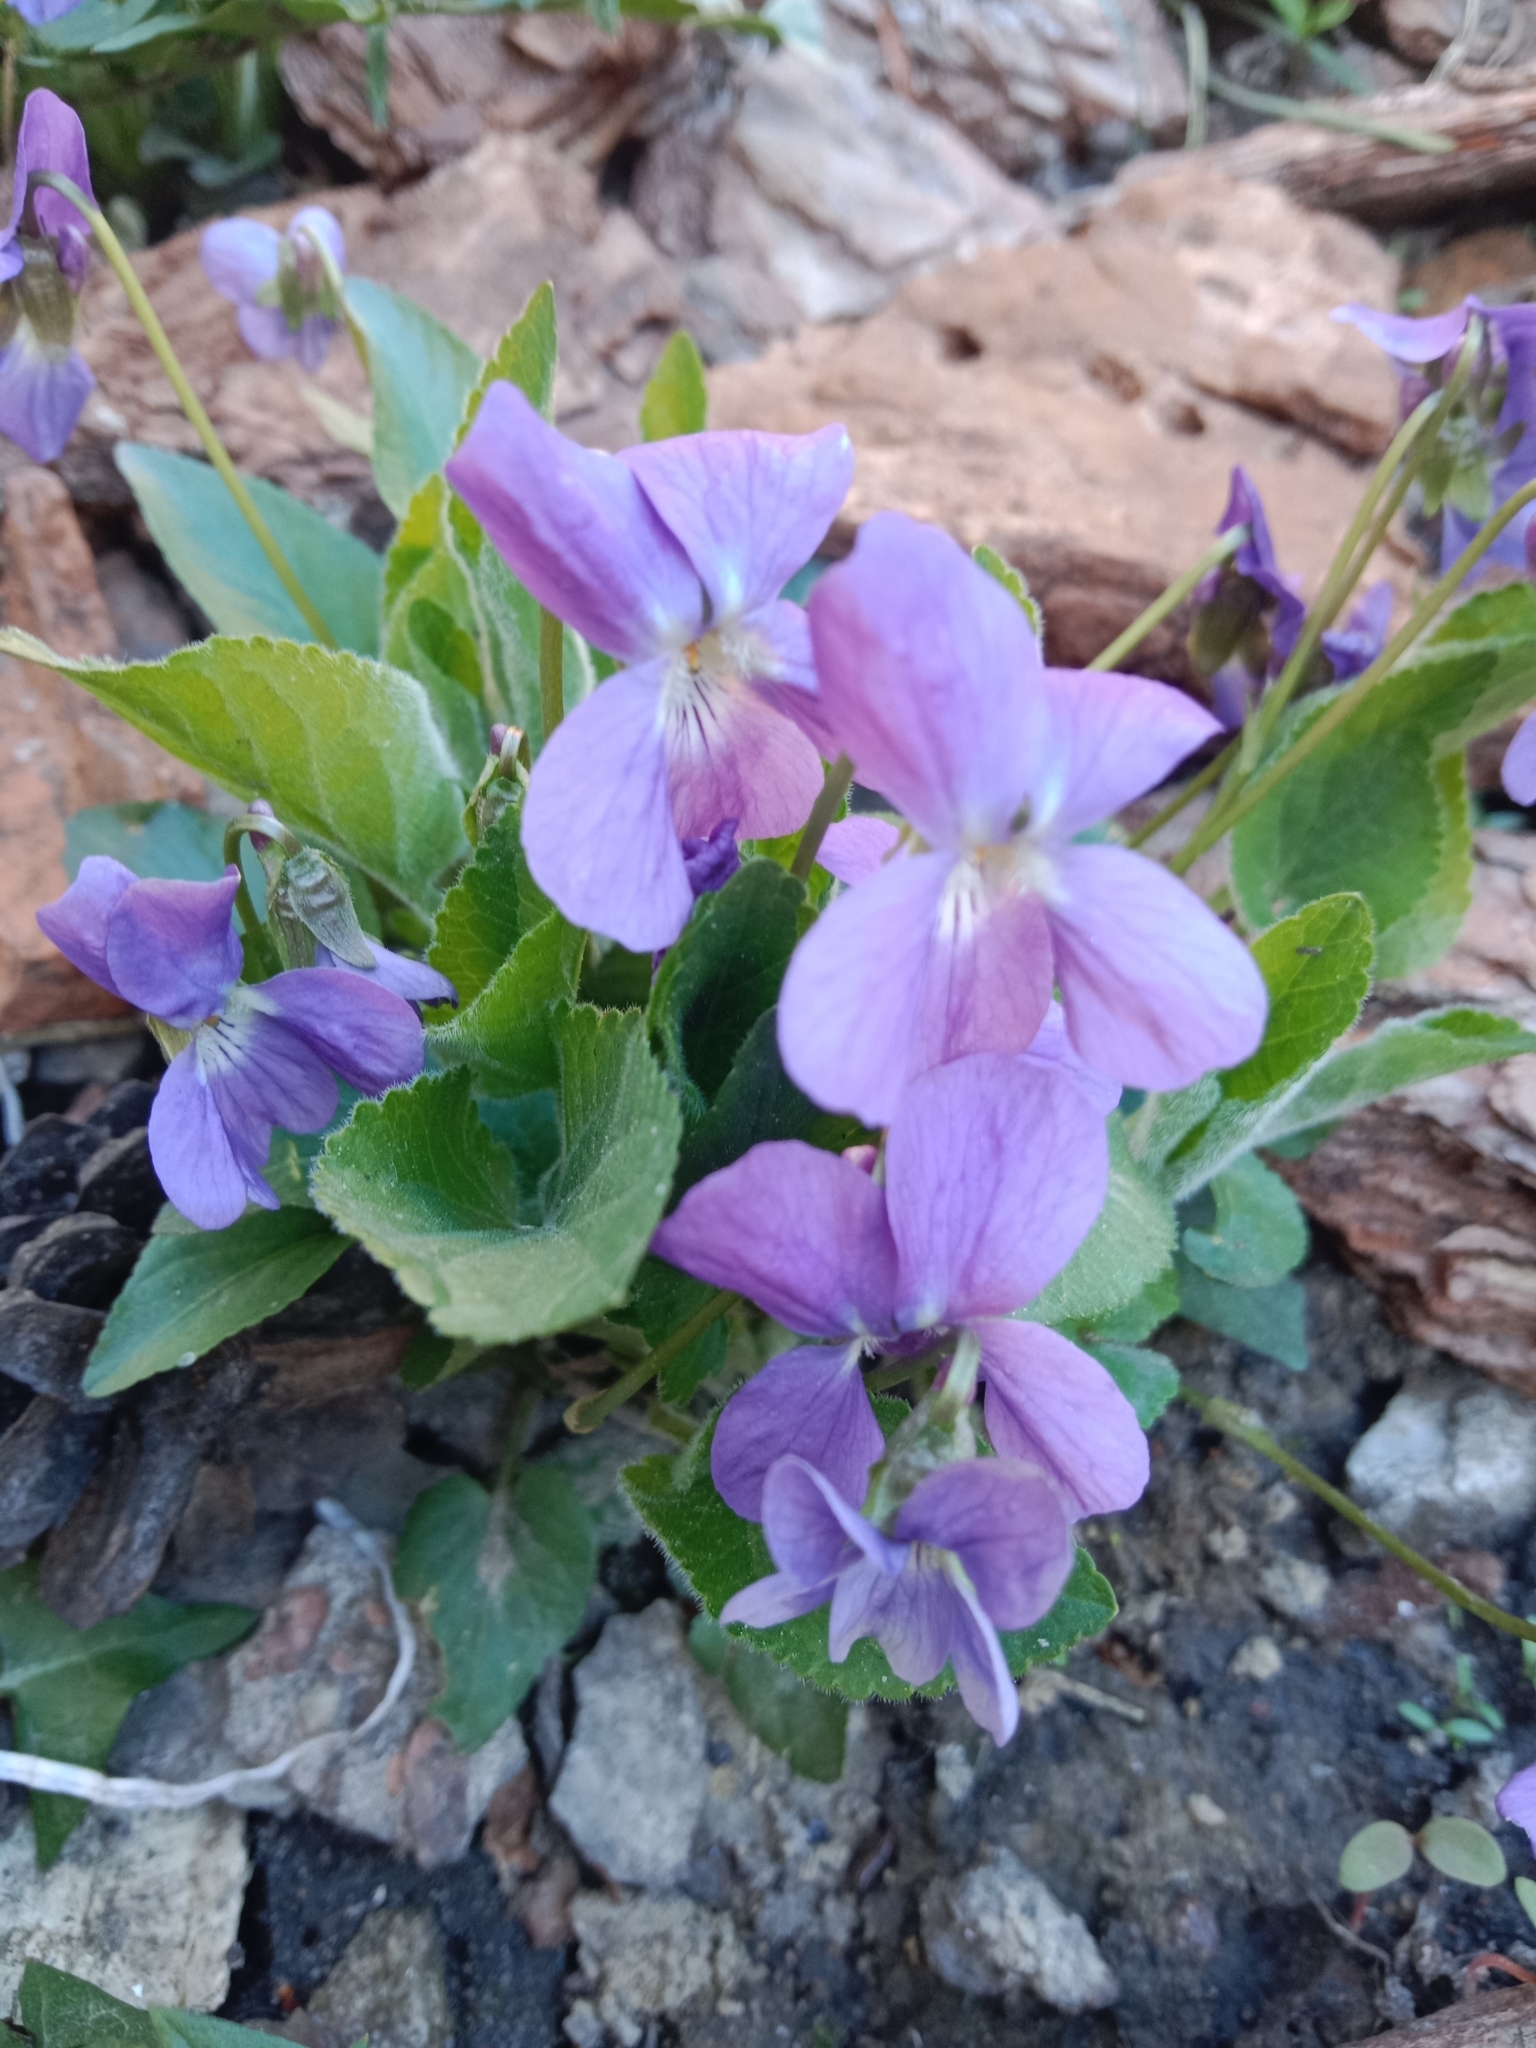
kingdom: Plantae
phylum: Tracheophyta
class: Magnoliopsida
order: Malpighiales
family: Violaceae
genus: Viola
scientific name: Viola hirta
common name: Hairy violet
